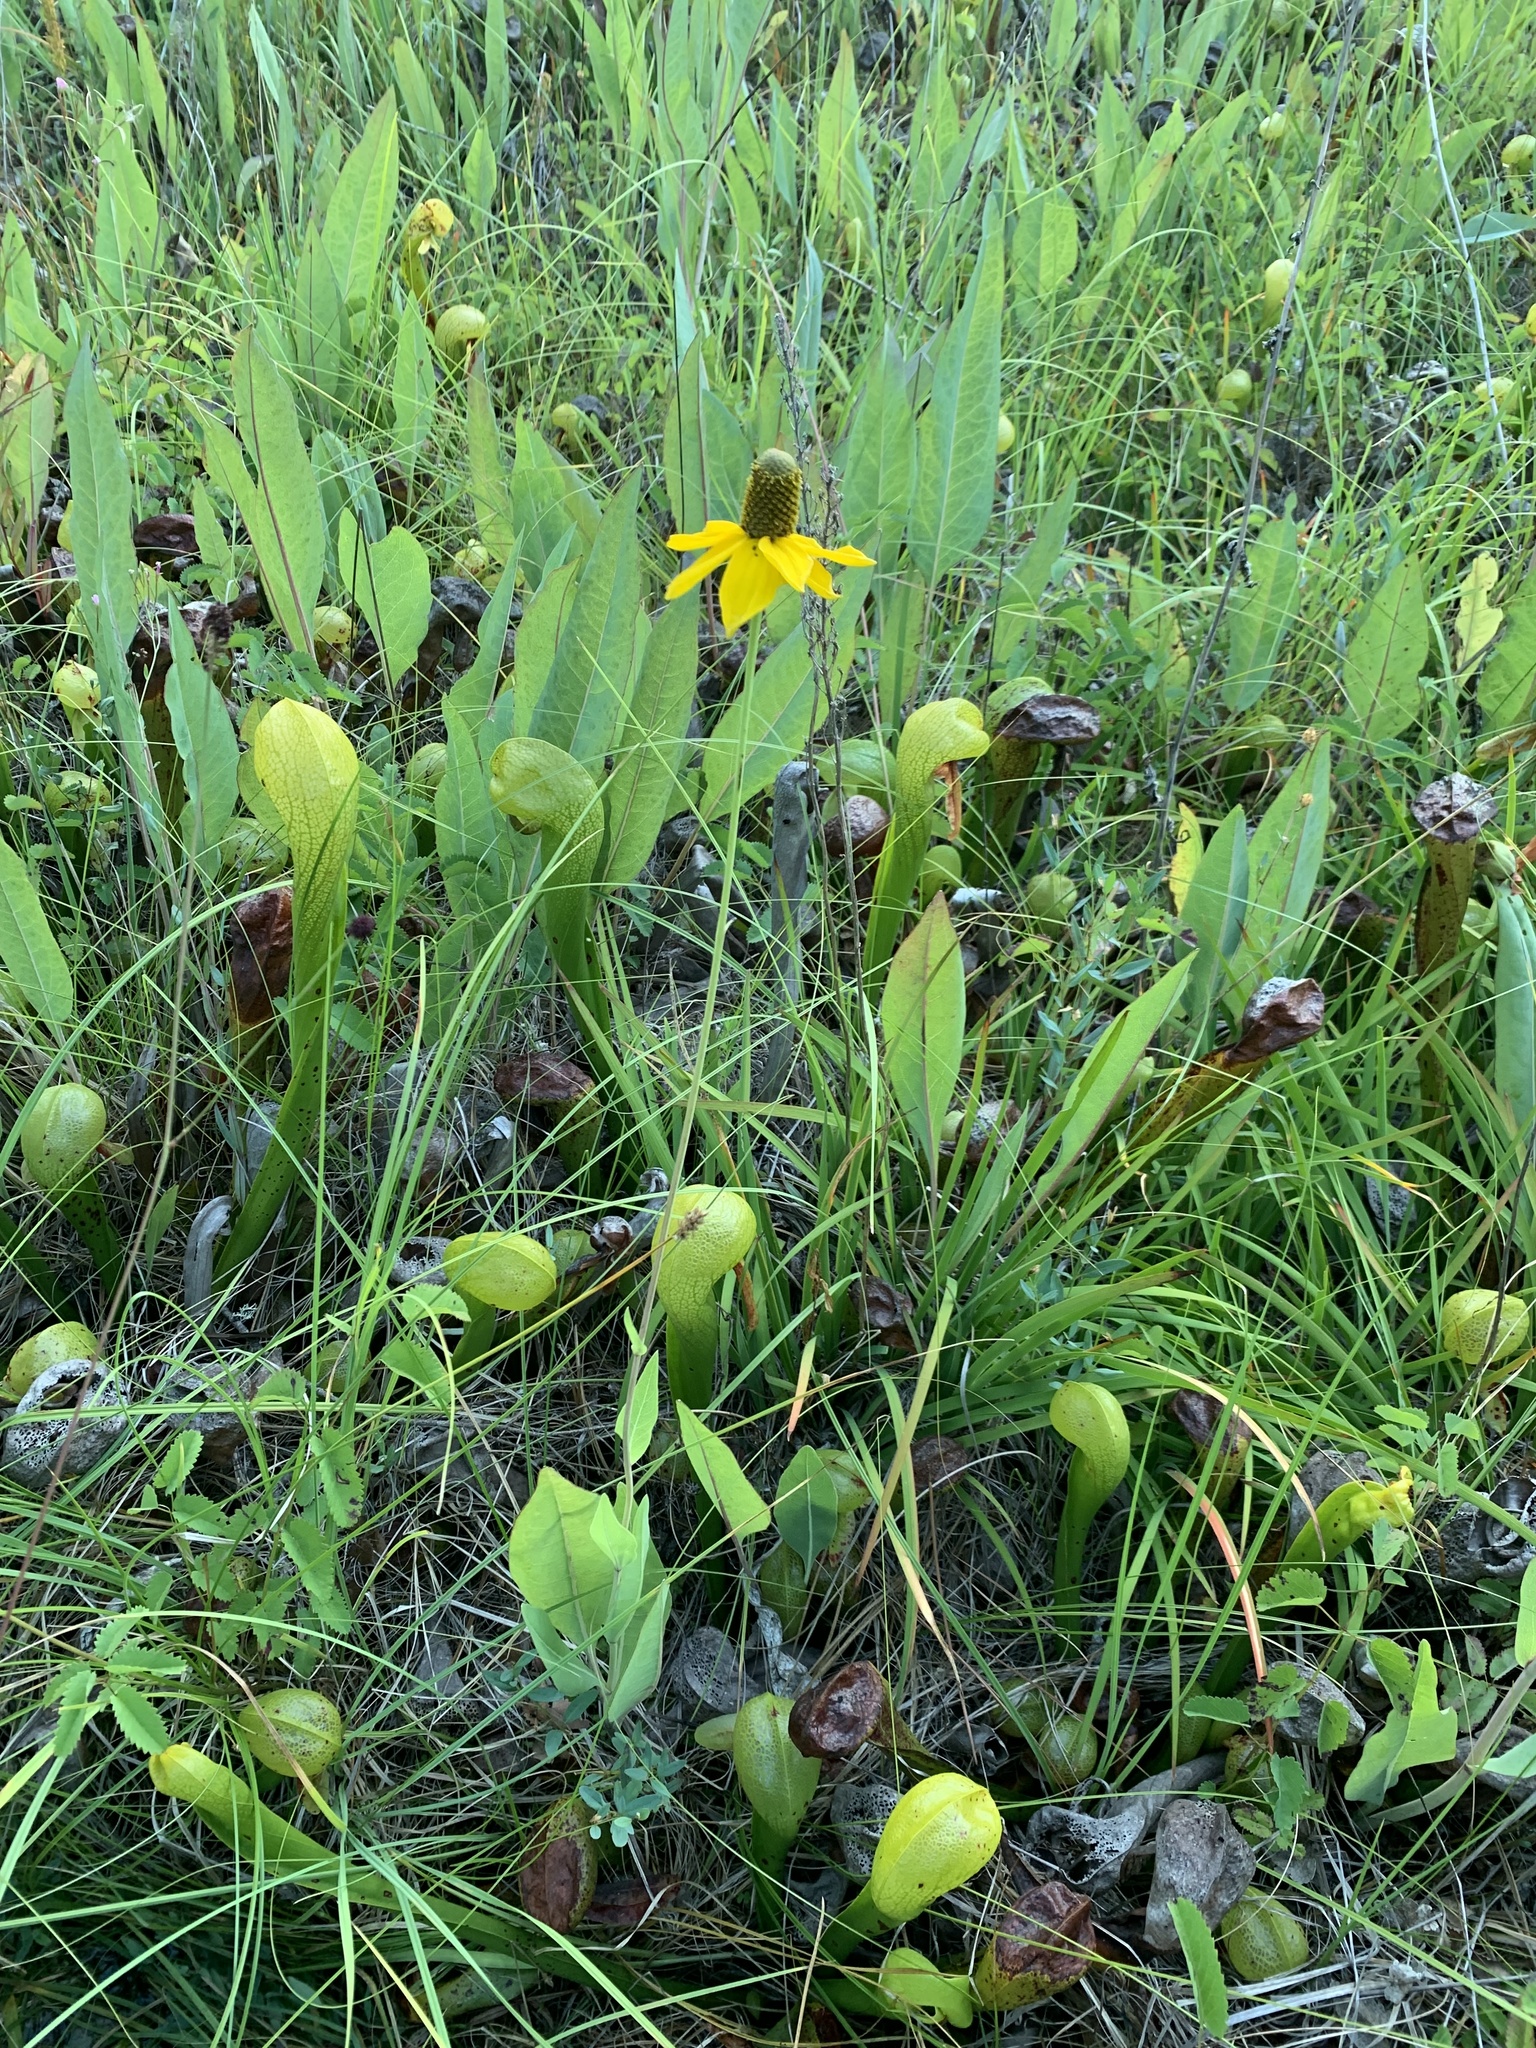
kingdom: Plantae
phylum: Tracheophyta
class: Magnoliopsida
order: Asterales
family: Asteraceae
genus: Rudbeckia
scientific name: Rudbeckia glaucescens
